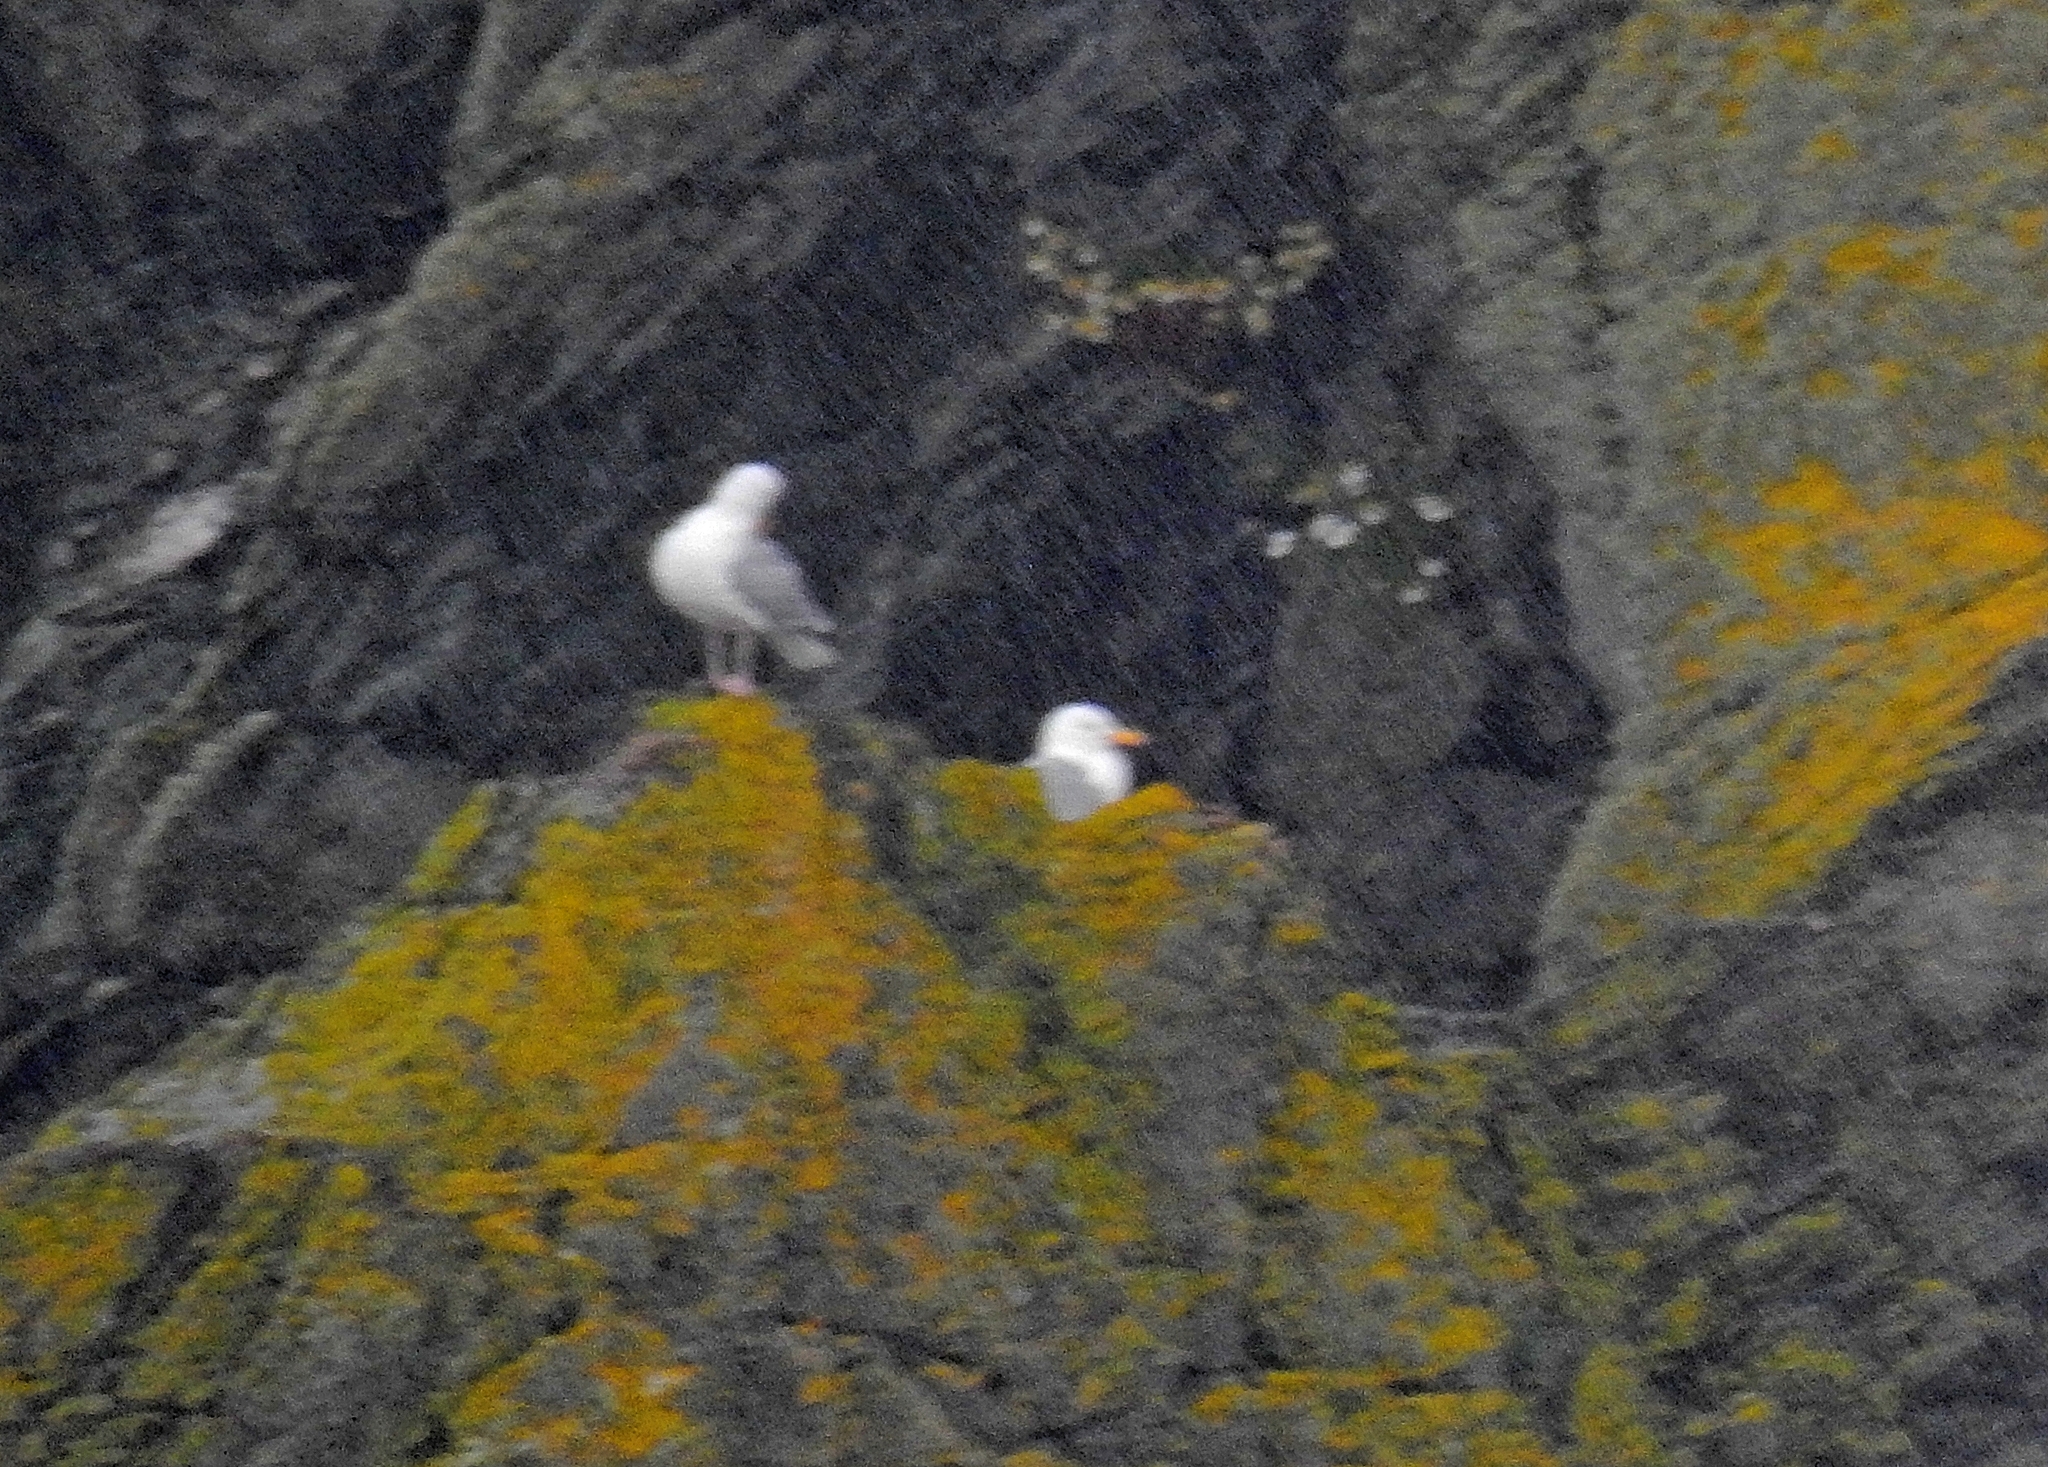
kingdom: Animalia
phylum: Chordata
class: Aves
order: Charadriiformes
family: Laridae
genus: Larus
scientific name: Larus argentatus
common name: Herring gull
